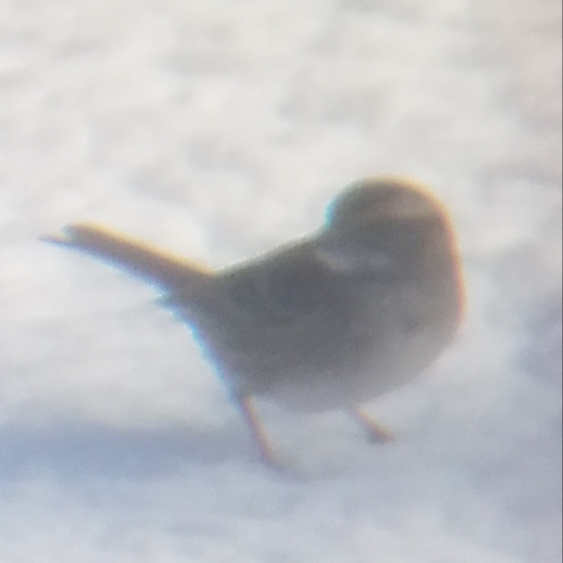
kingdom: Animalia
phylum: Chordata
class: Aves
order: Passeriformes
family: Passerellidae
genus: Zonotrichia
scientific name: Zonotrichia albicollis
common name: White-throated sparrow
